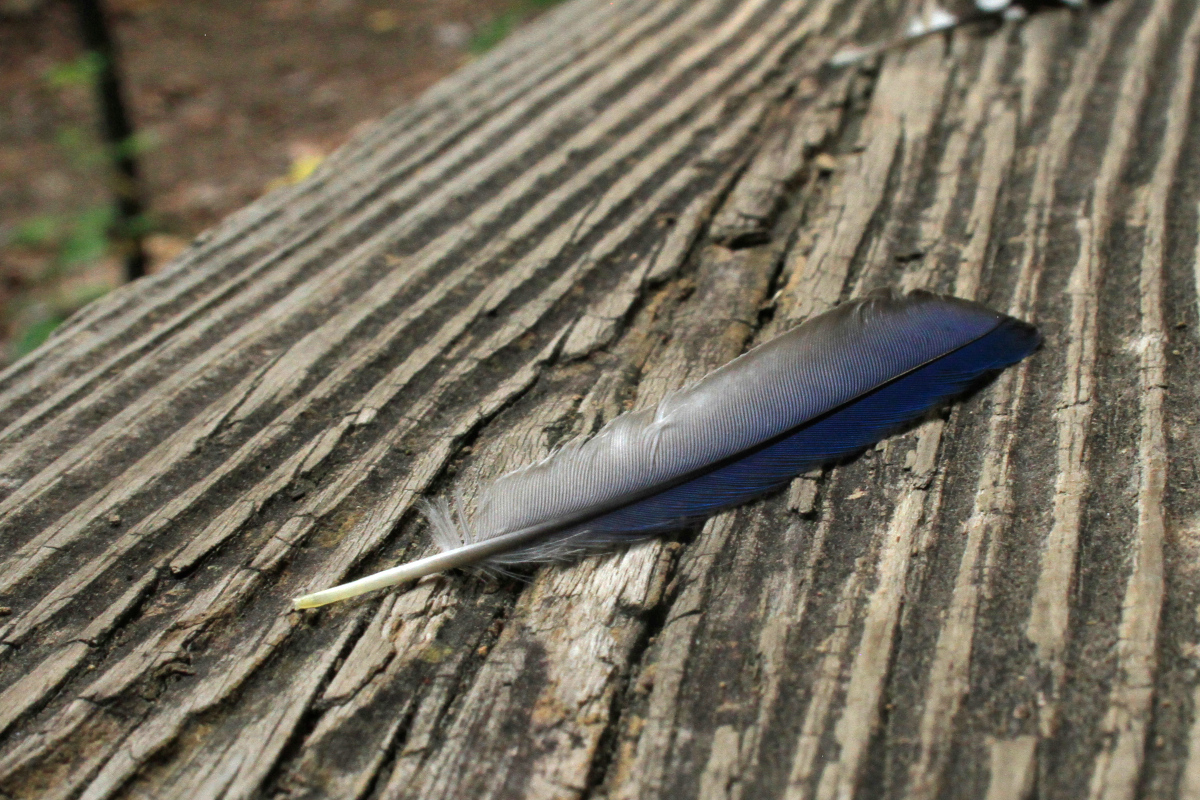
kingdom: Animalia
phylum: Chordata
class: Aves
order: Passeriformes
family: Corvidae
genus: Cyanocitta
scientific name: Cyanocitta cristata
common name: Blue jay
